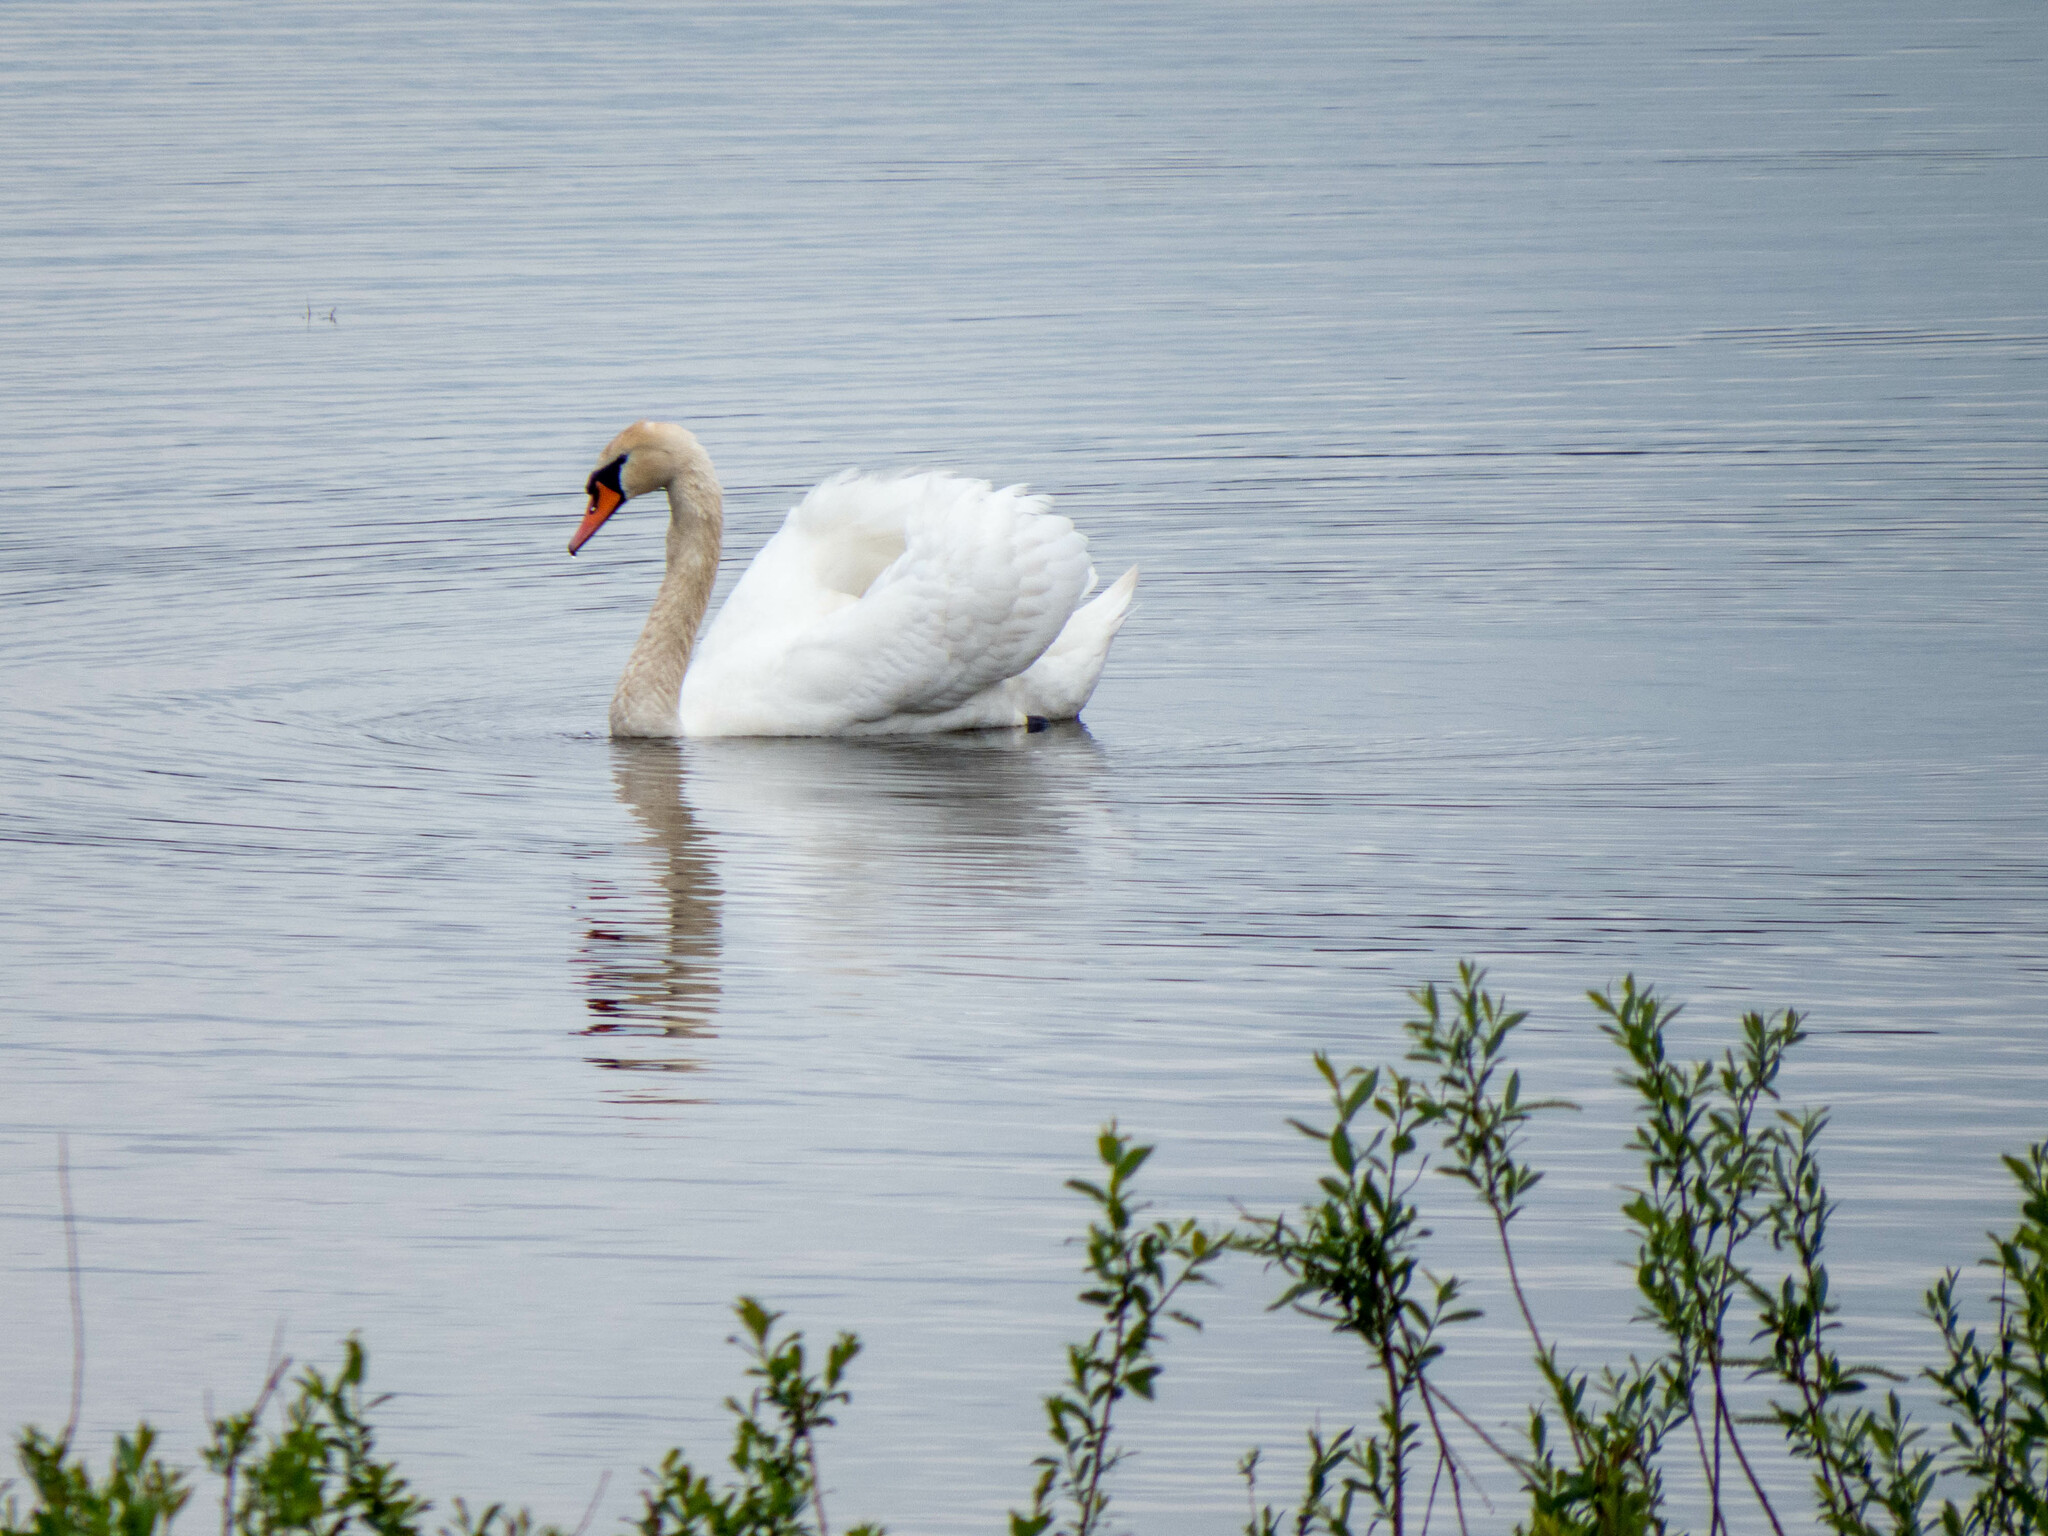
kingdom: Animalia
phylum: Chordata
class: Aves
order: Anseriformes
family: Anatidae
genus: Cygnus
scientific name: Cygnus olor
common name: Mute swan
